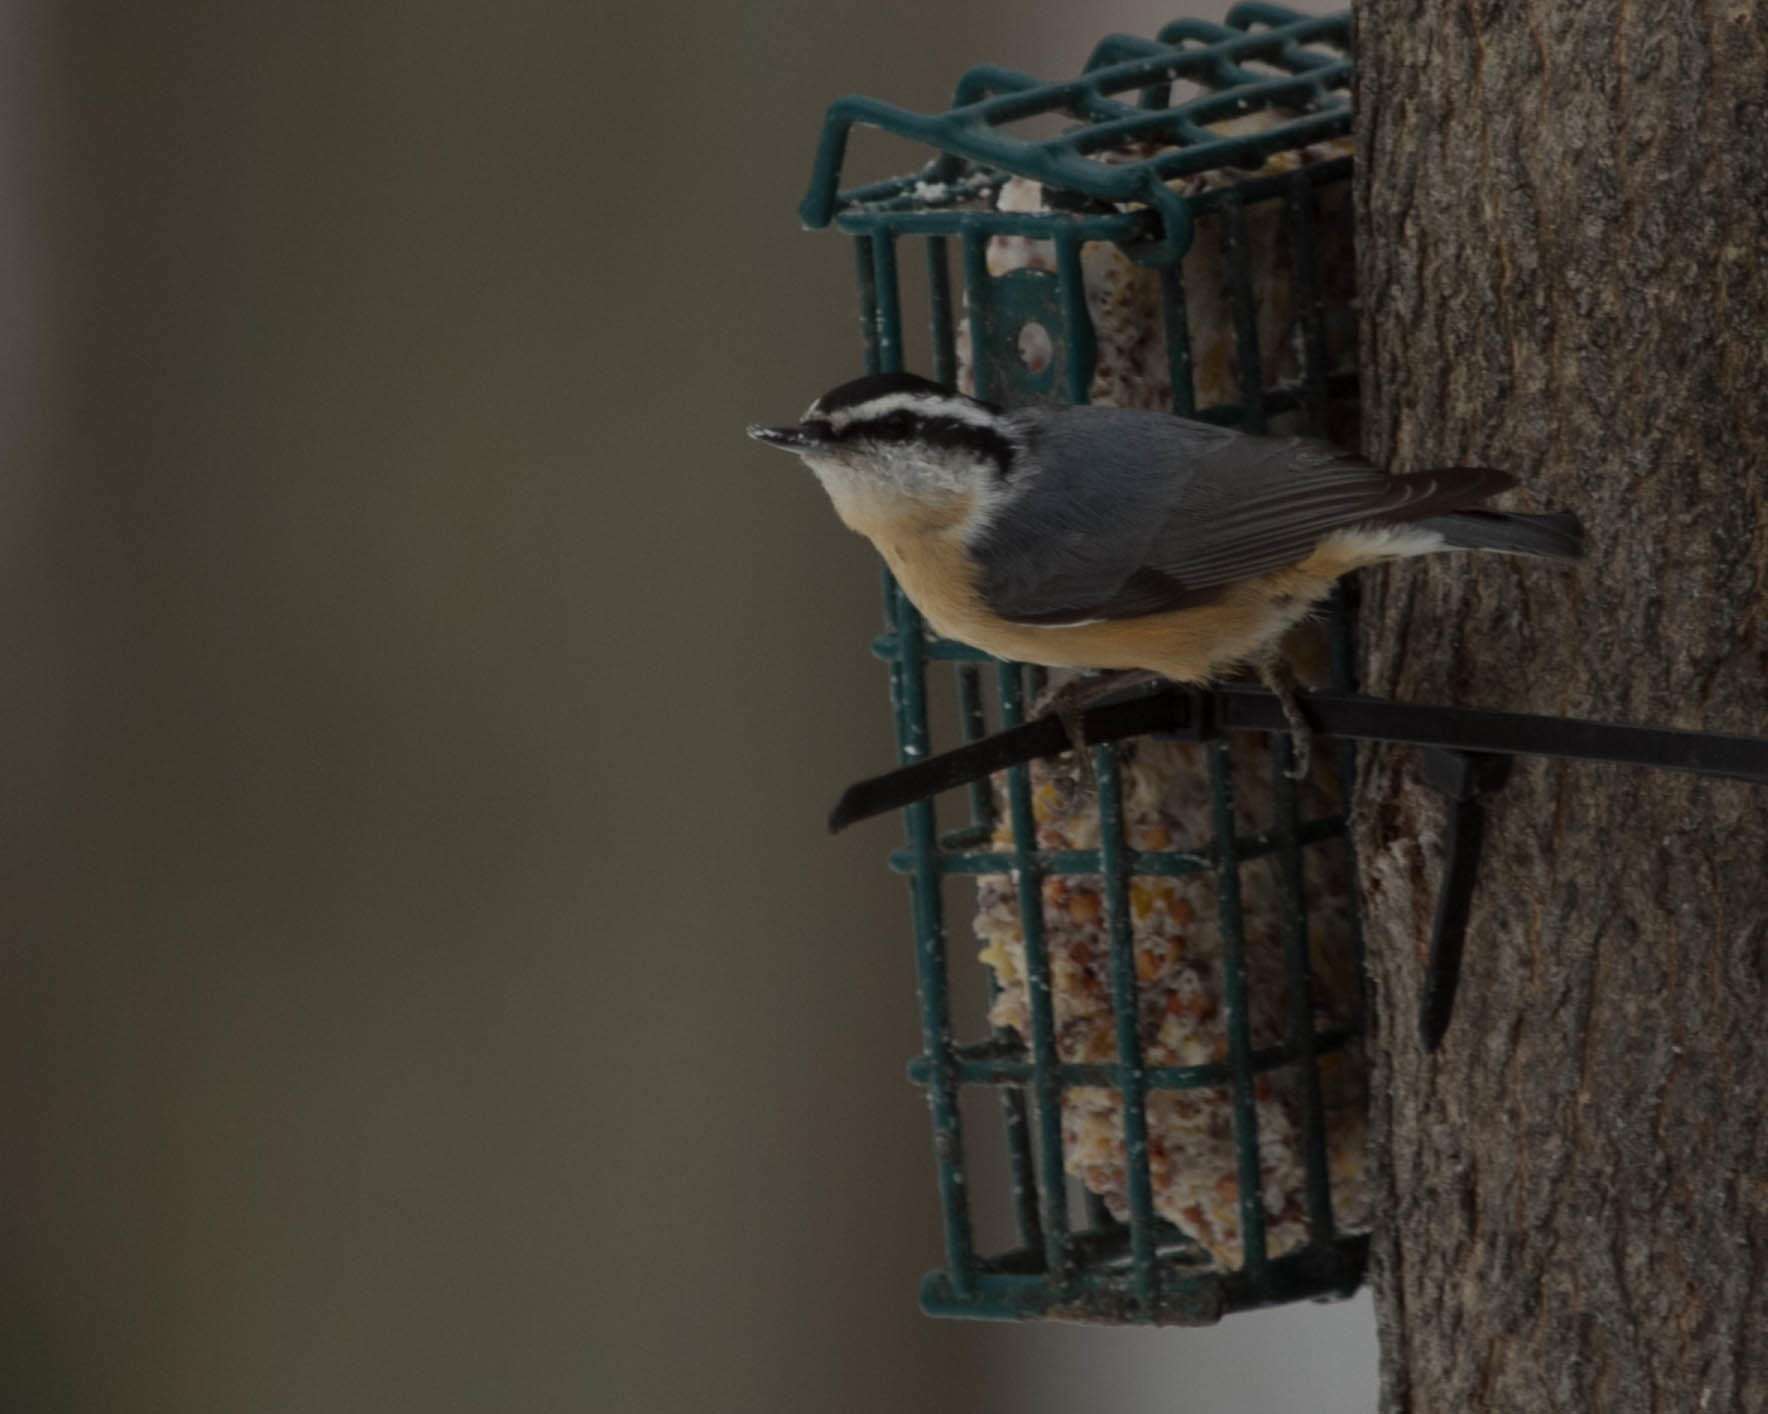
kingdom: Animalia
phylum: Chordata
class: Aves
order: Passeriformes
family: Sittidae
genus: Sitta
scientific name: Sitta canadensis
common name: Red-breasted nuthatch
